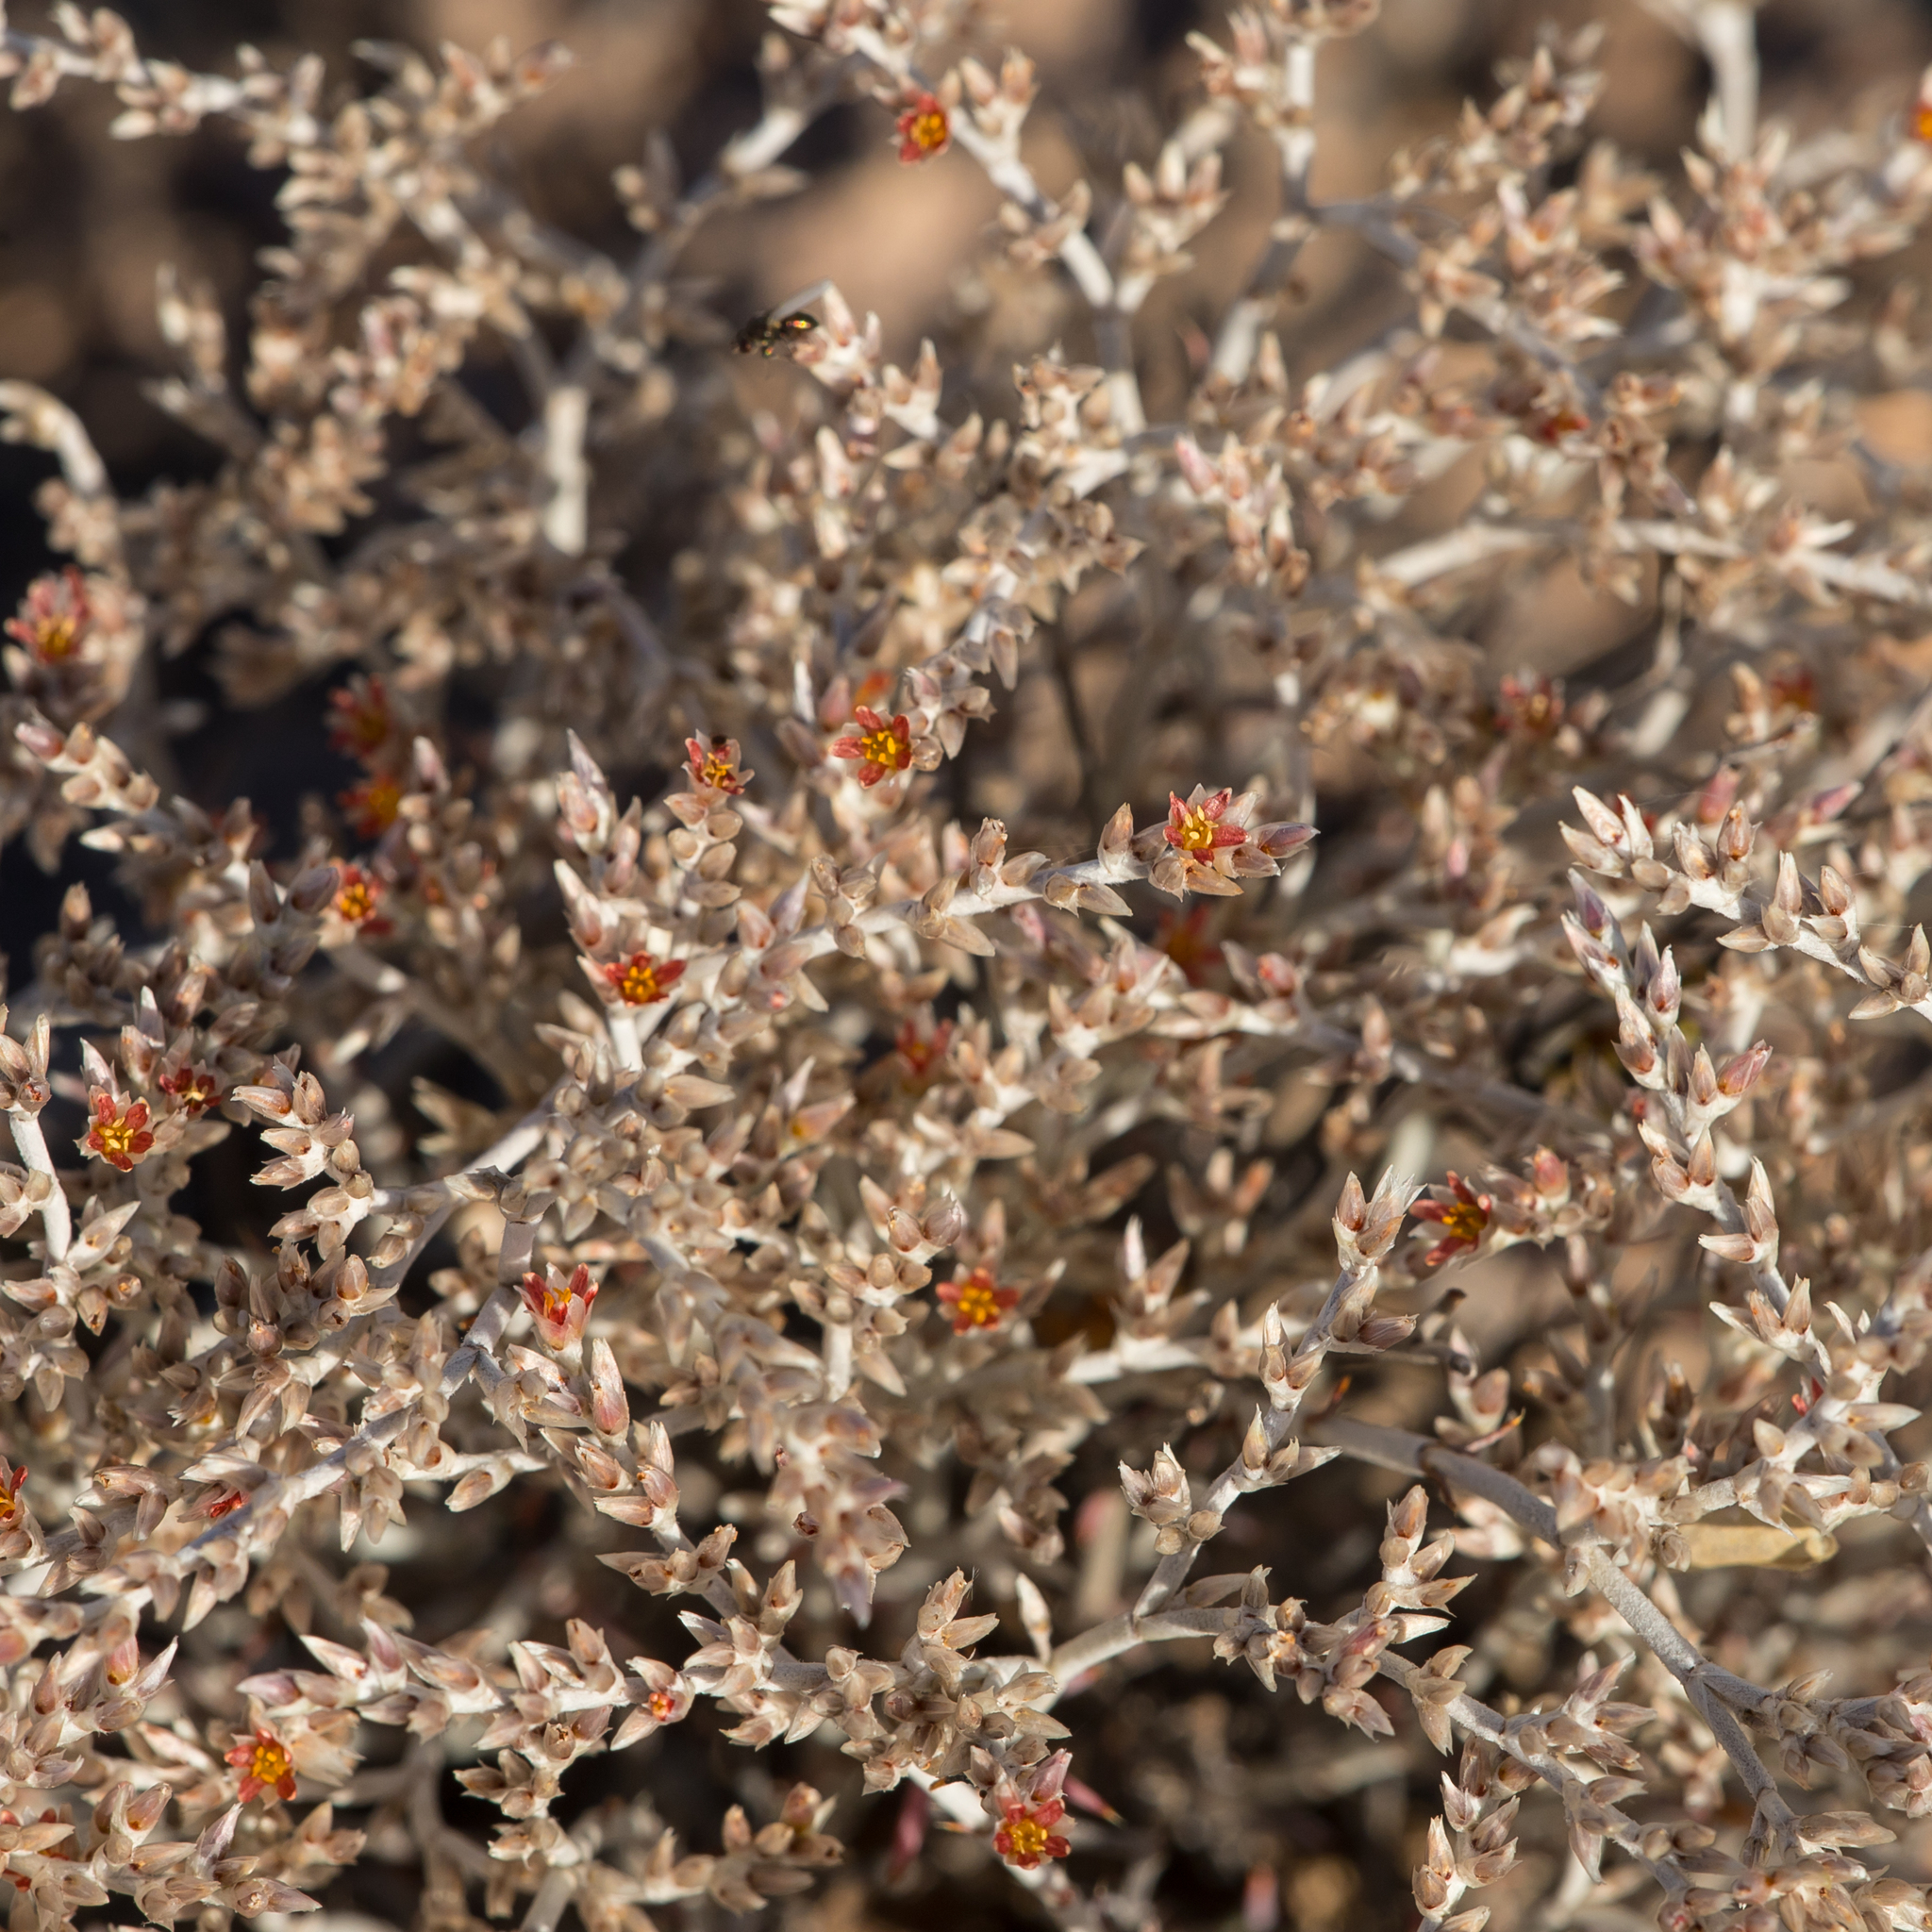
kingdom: Plantae
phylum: Tracheophyta
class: Magnoliopsida
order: Caryophyllales
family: Caryophyllaceae
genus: Polycarpaea
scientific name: Polycarpaea multicaulis
